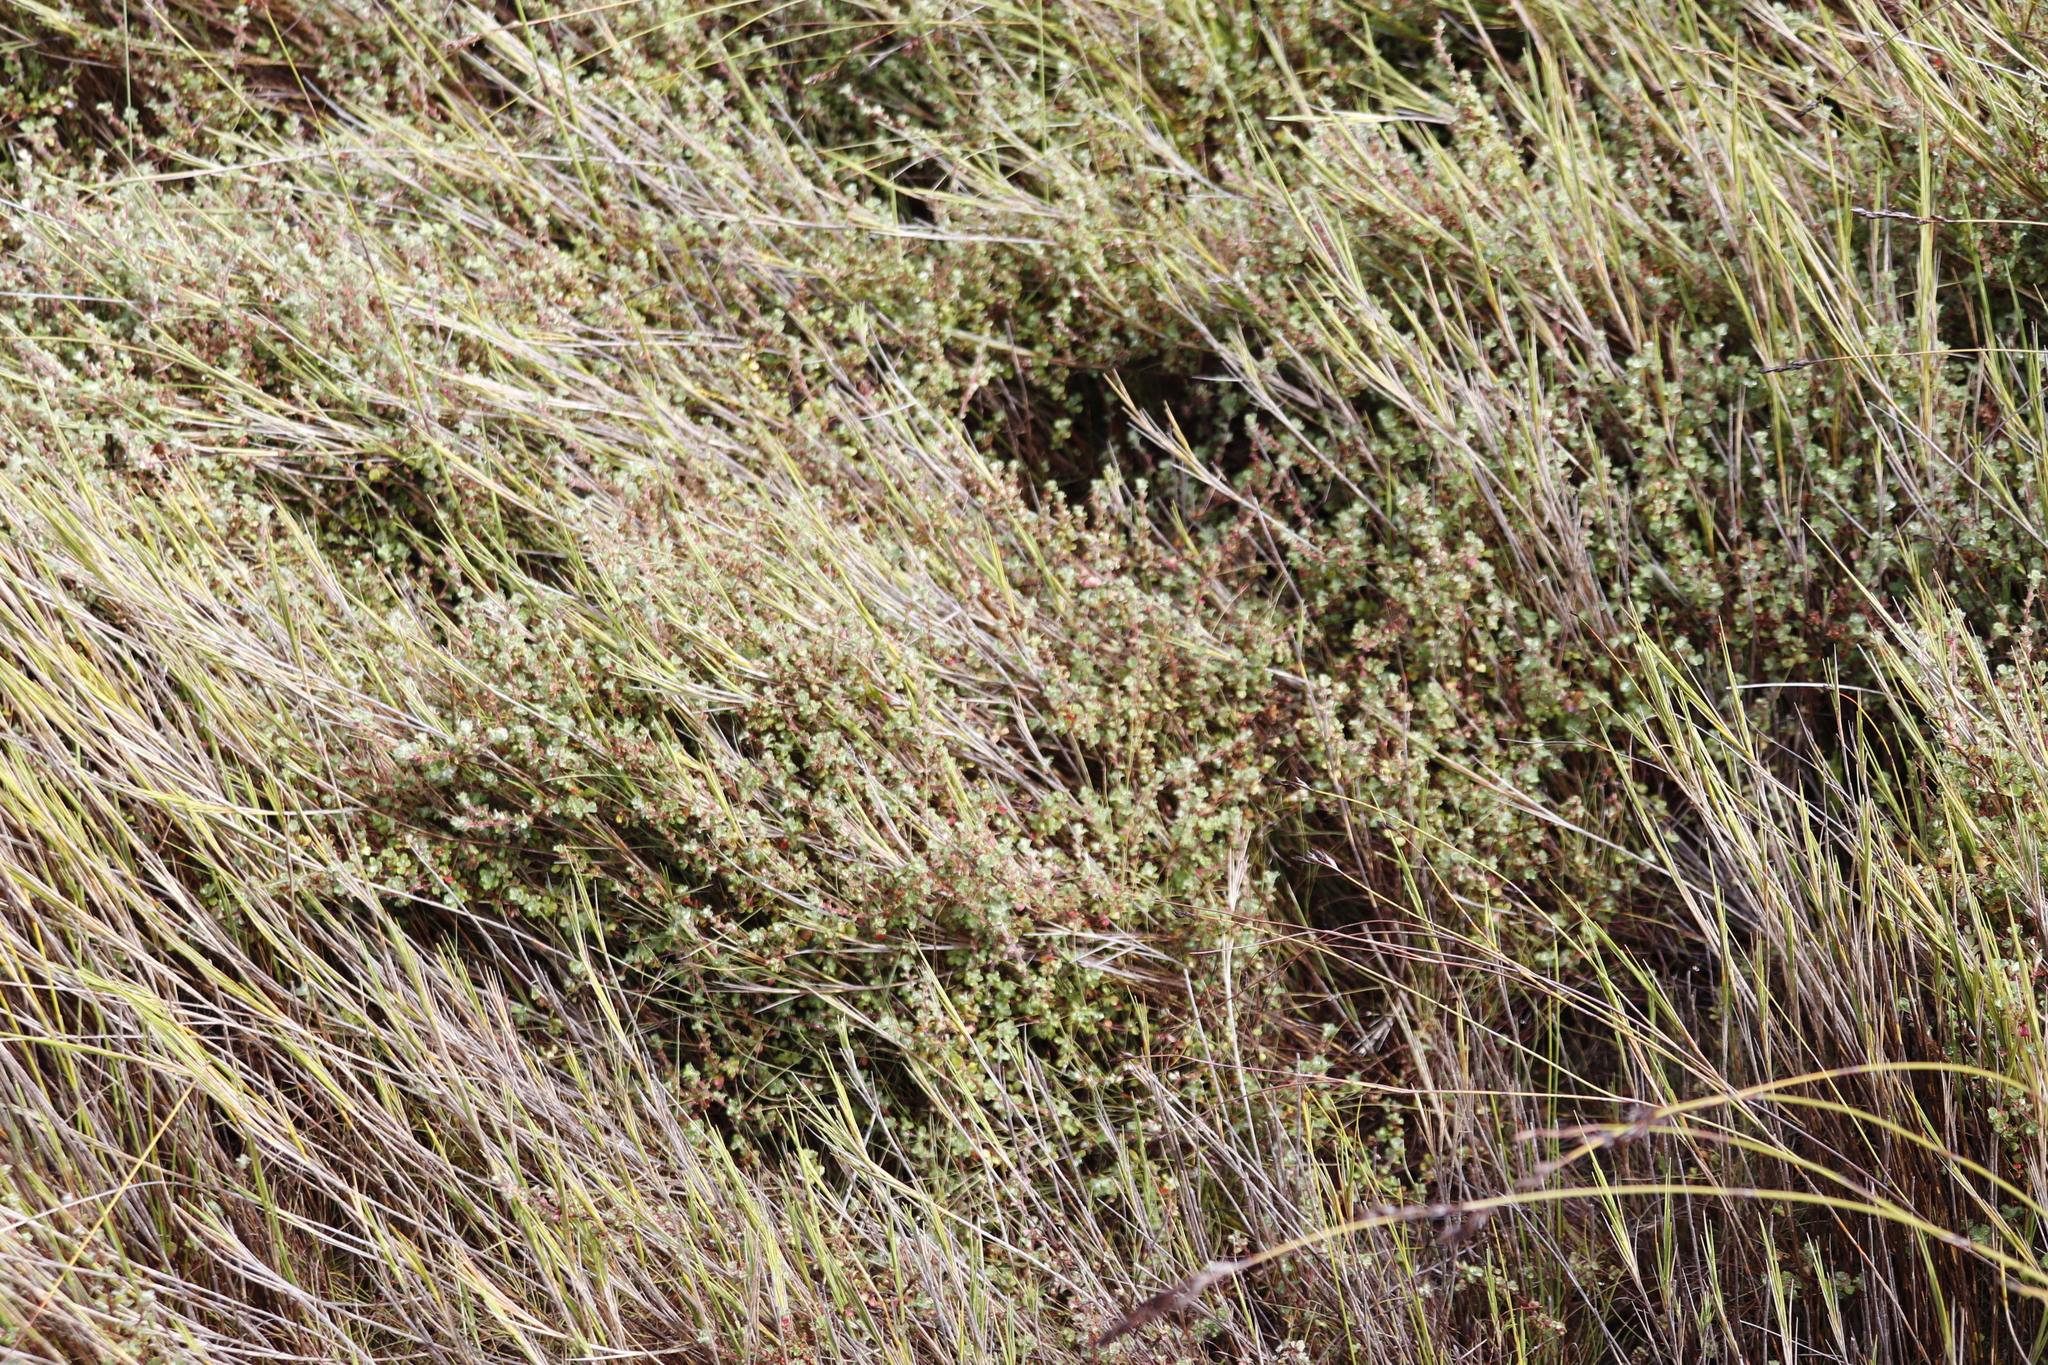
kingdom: Plantae
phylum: Tracheophyta
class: Magnoliopsida
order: Rosales
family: Rosaceae
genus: Cliffortia
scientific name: Cliffortia tricuspidata
